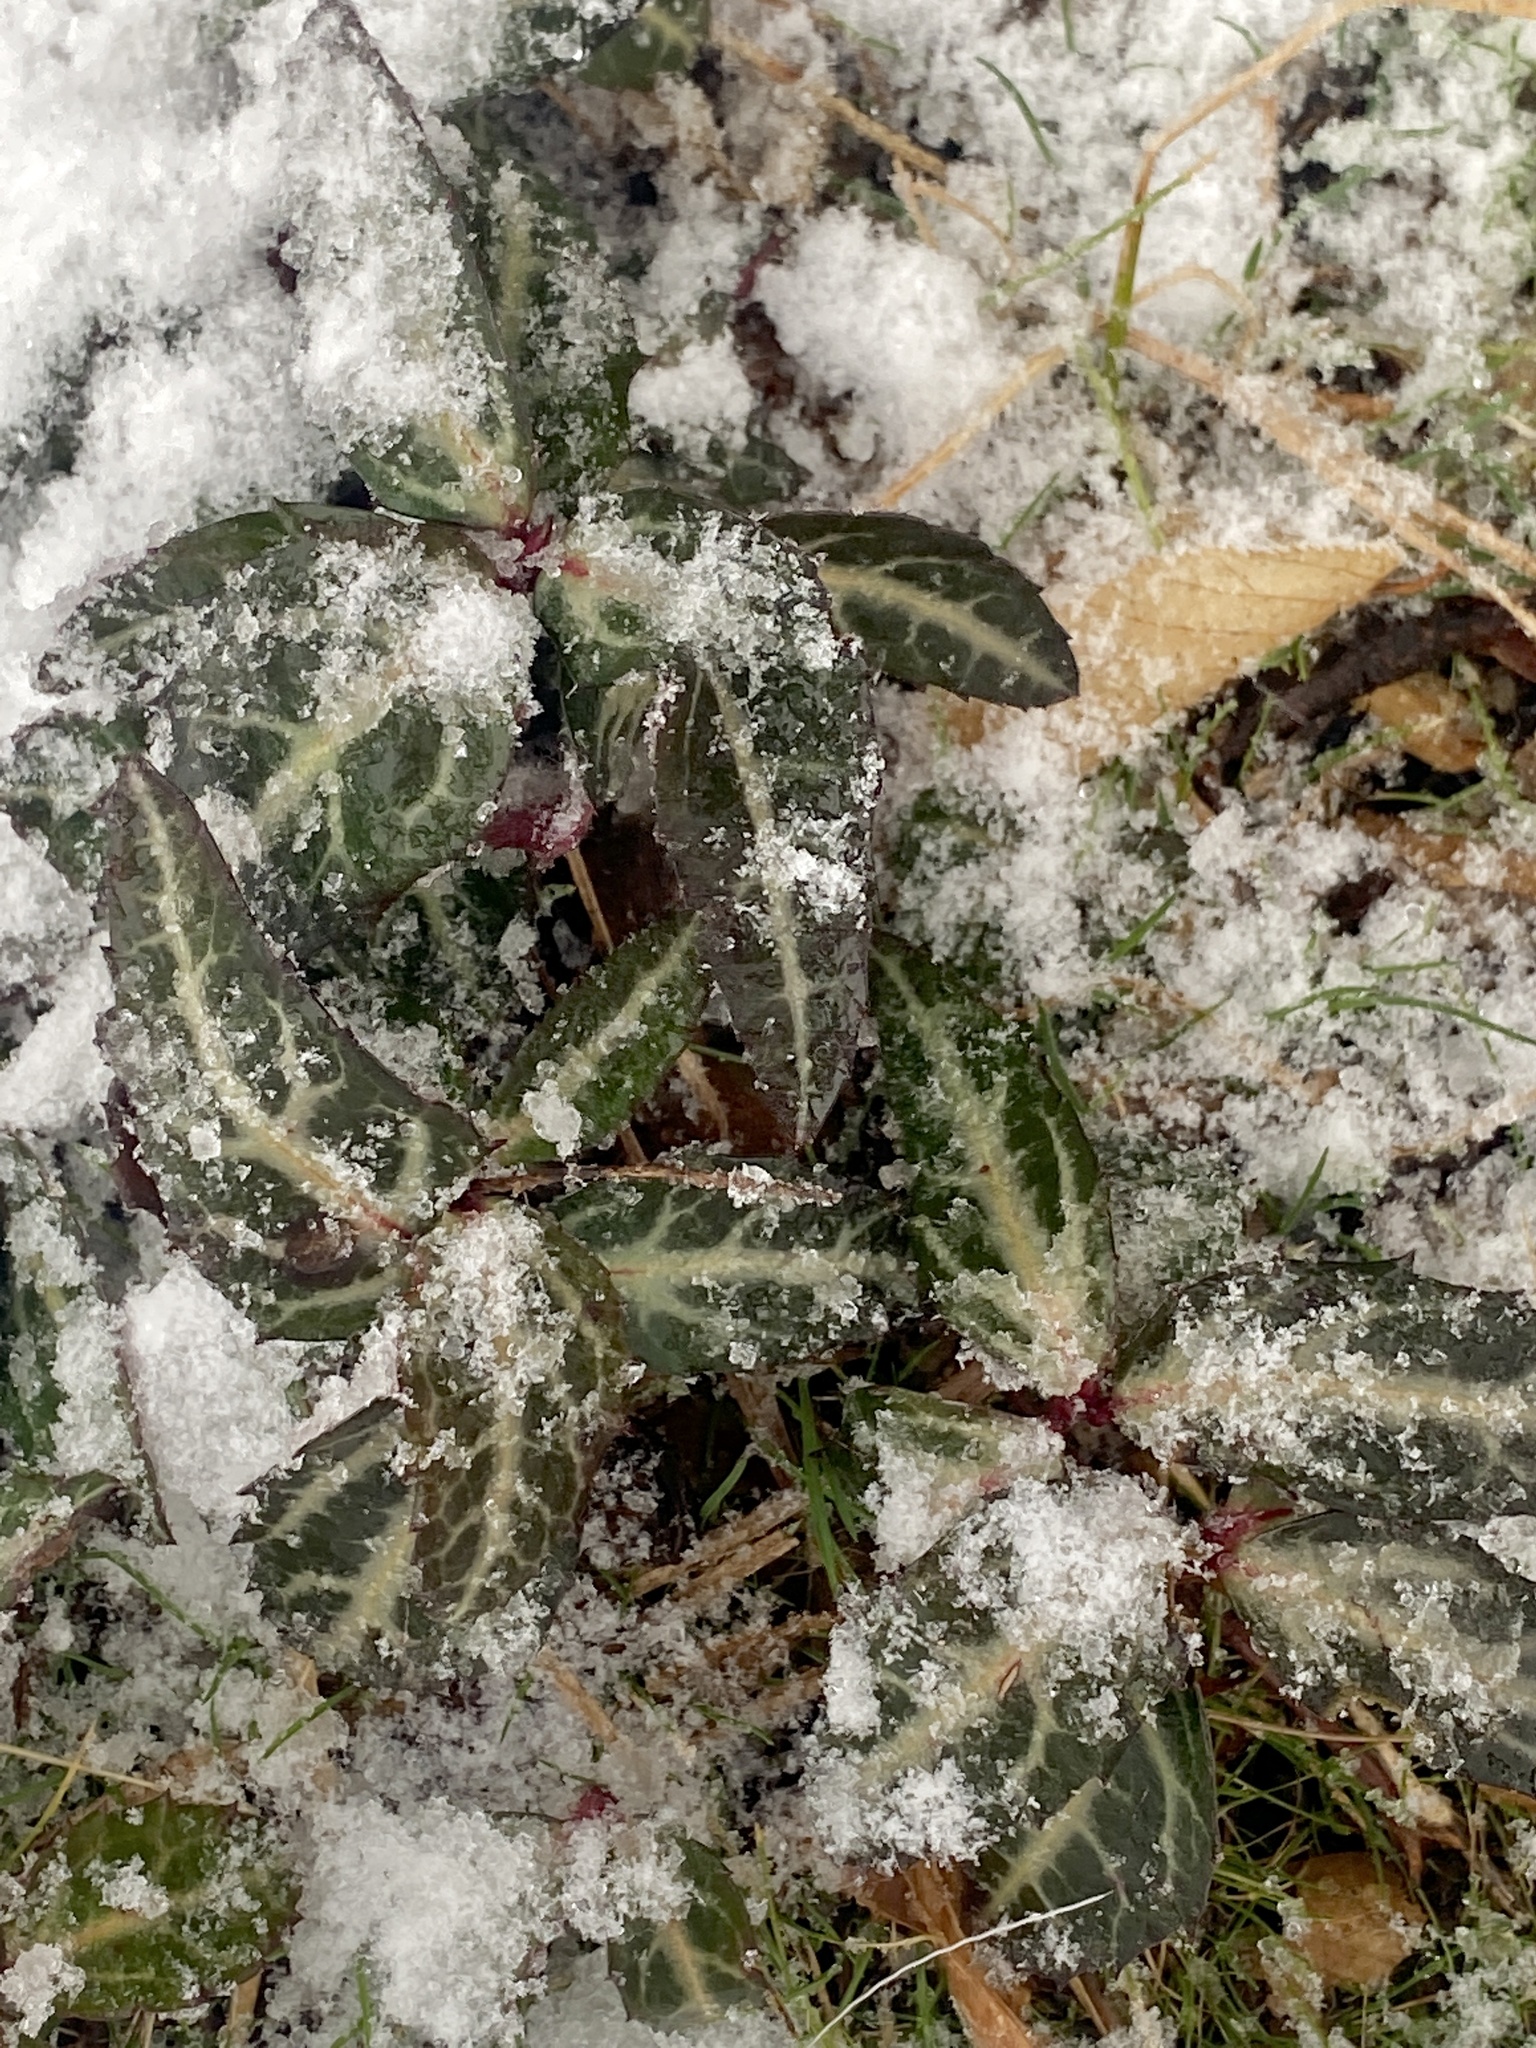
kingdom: Plantae
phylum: Tracheophyta
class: Magnoliopsida
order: Ericales
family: Ericaceae
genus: Chimaphila
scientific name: Chimaphila maculata
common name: Spotted pipsissewa
